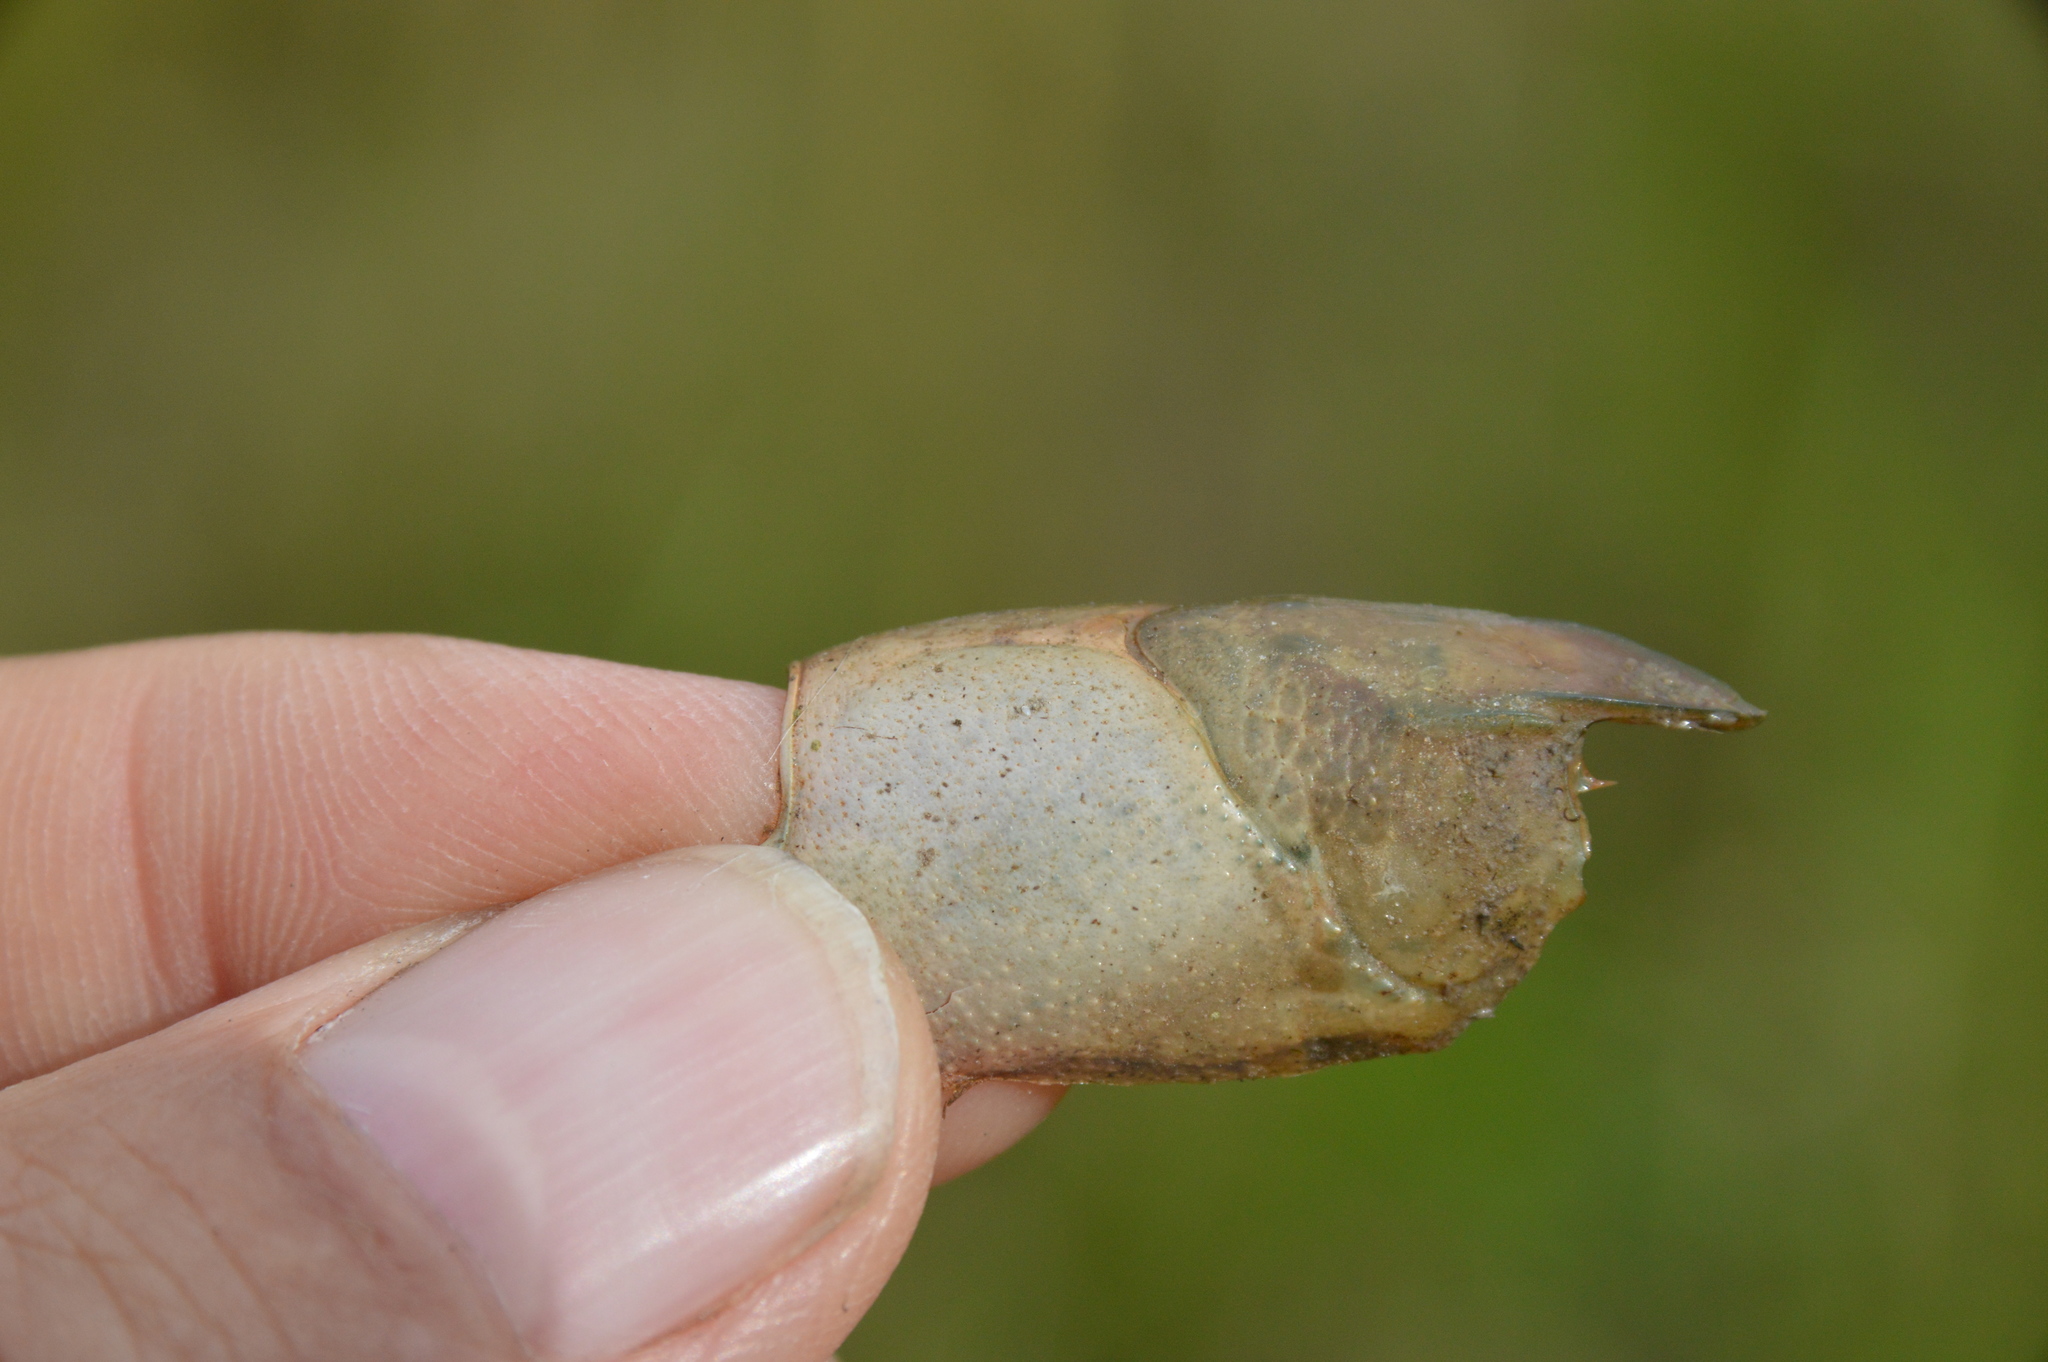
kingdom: Animalia
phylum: Arthropoda
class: Malacostraca
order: Decapoda
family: Cambaridae
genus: Procambarus
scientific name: Procambarus albaughi
